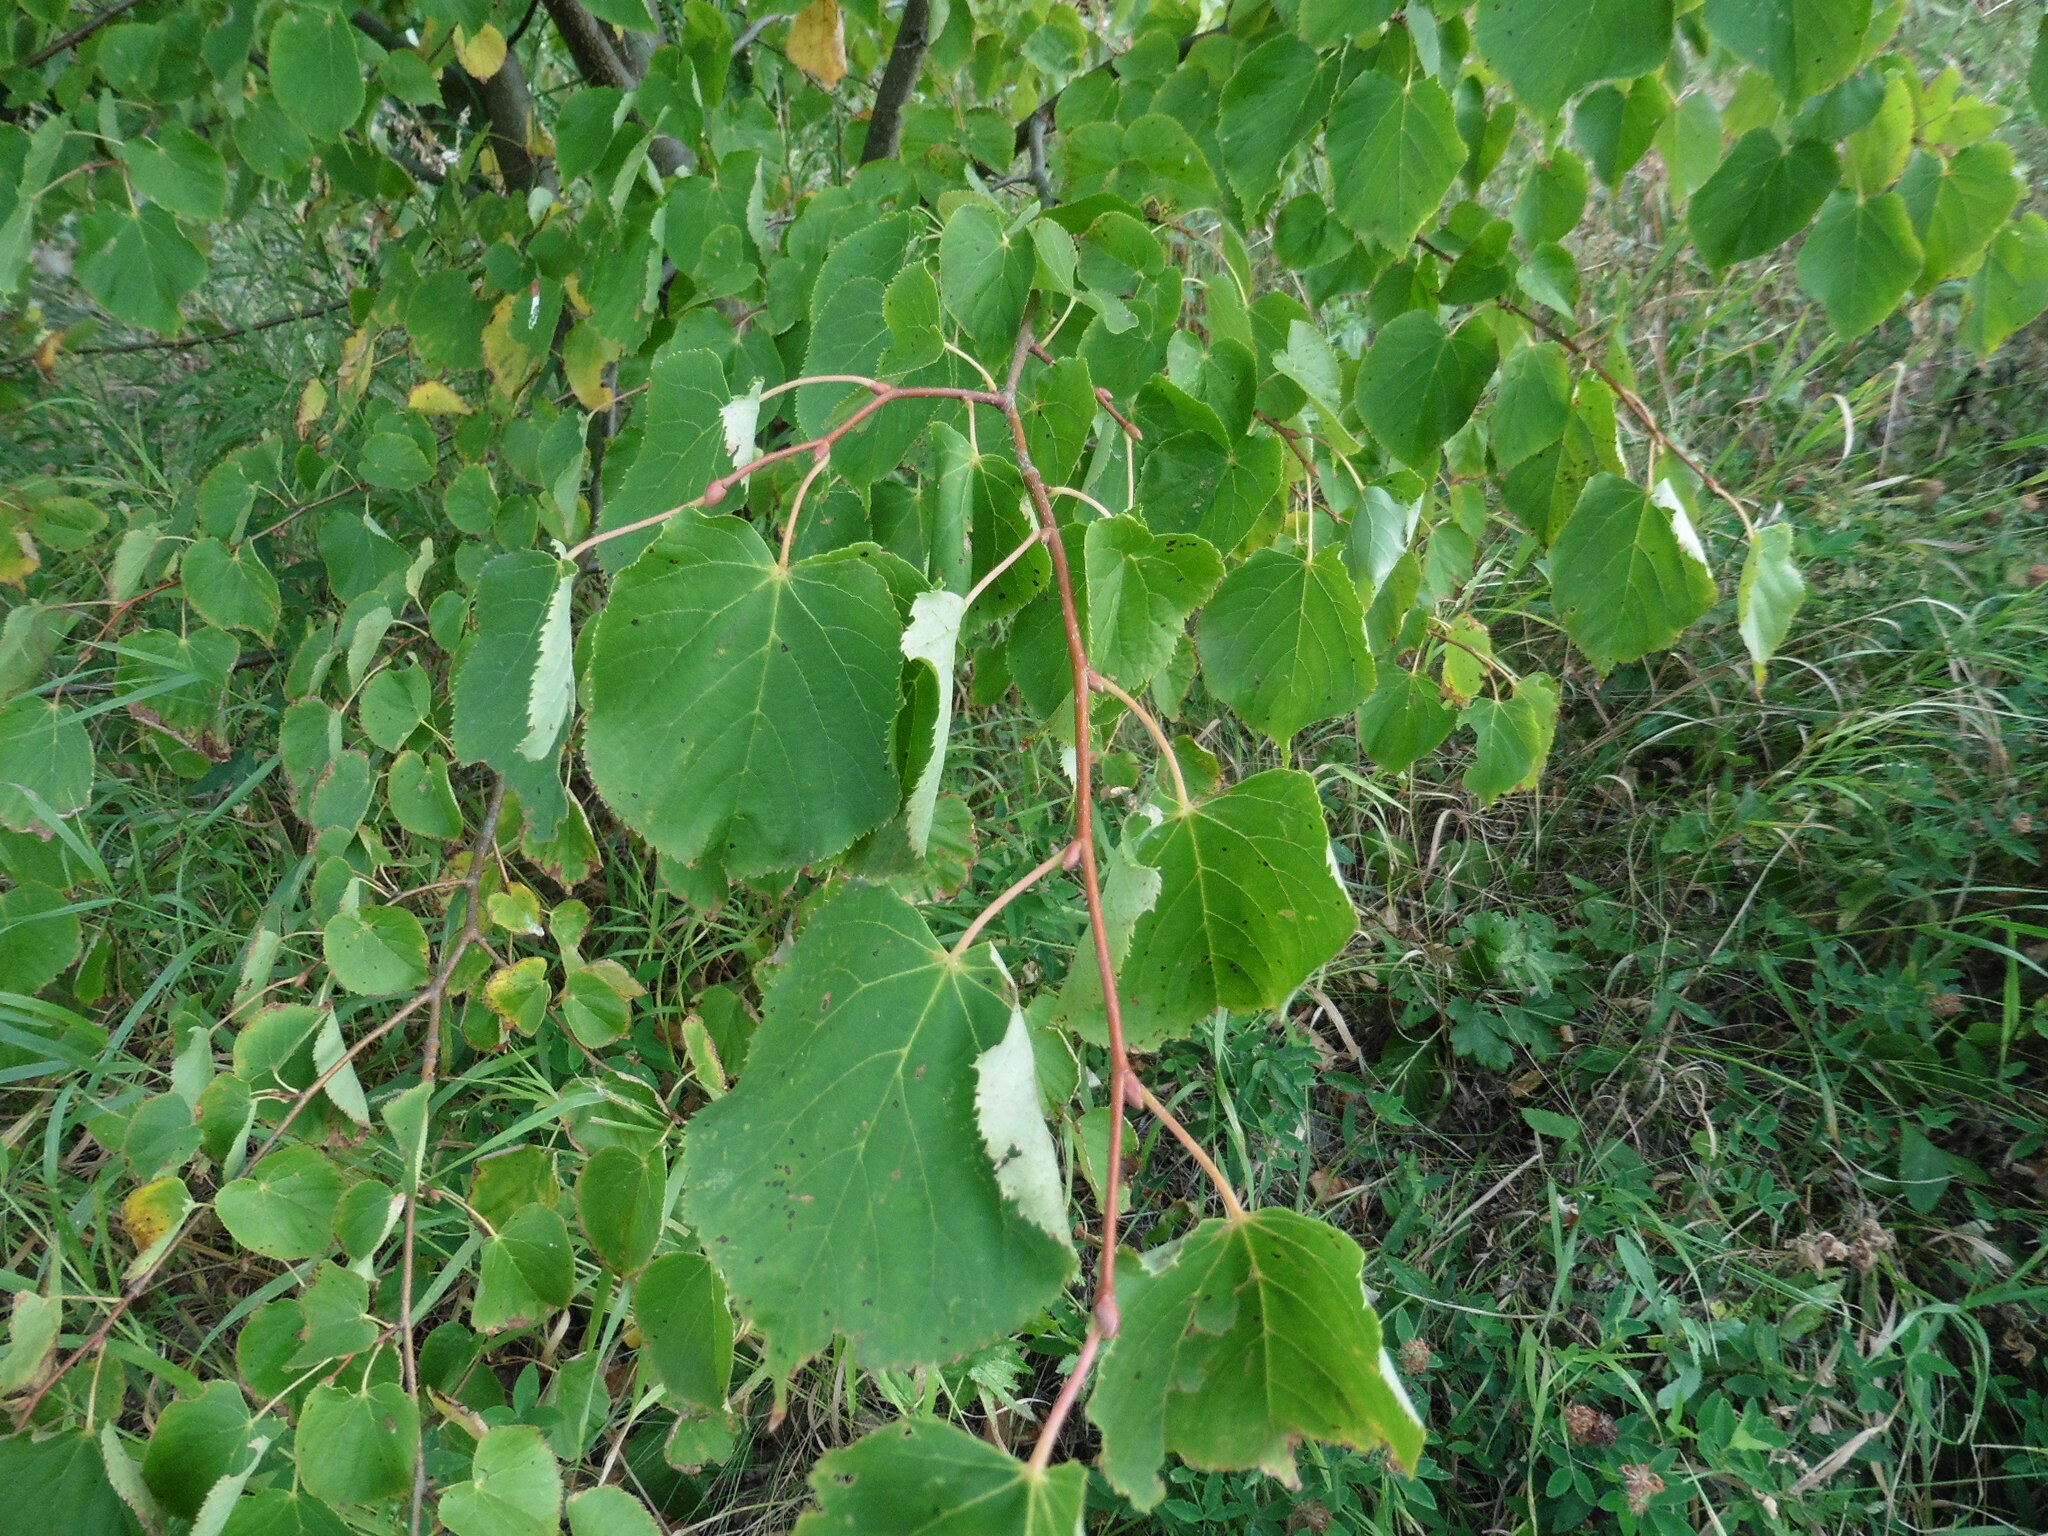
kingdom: Plantae
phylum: Tracheophyta
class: Magnoliopsida
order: Malvales
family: Malvaceae
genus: Tilia
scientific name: Tilia cordata
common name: Small-leaved lime
